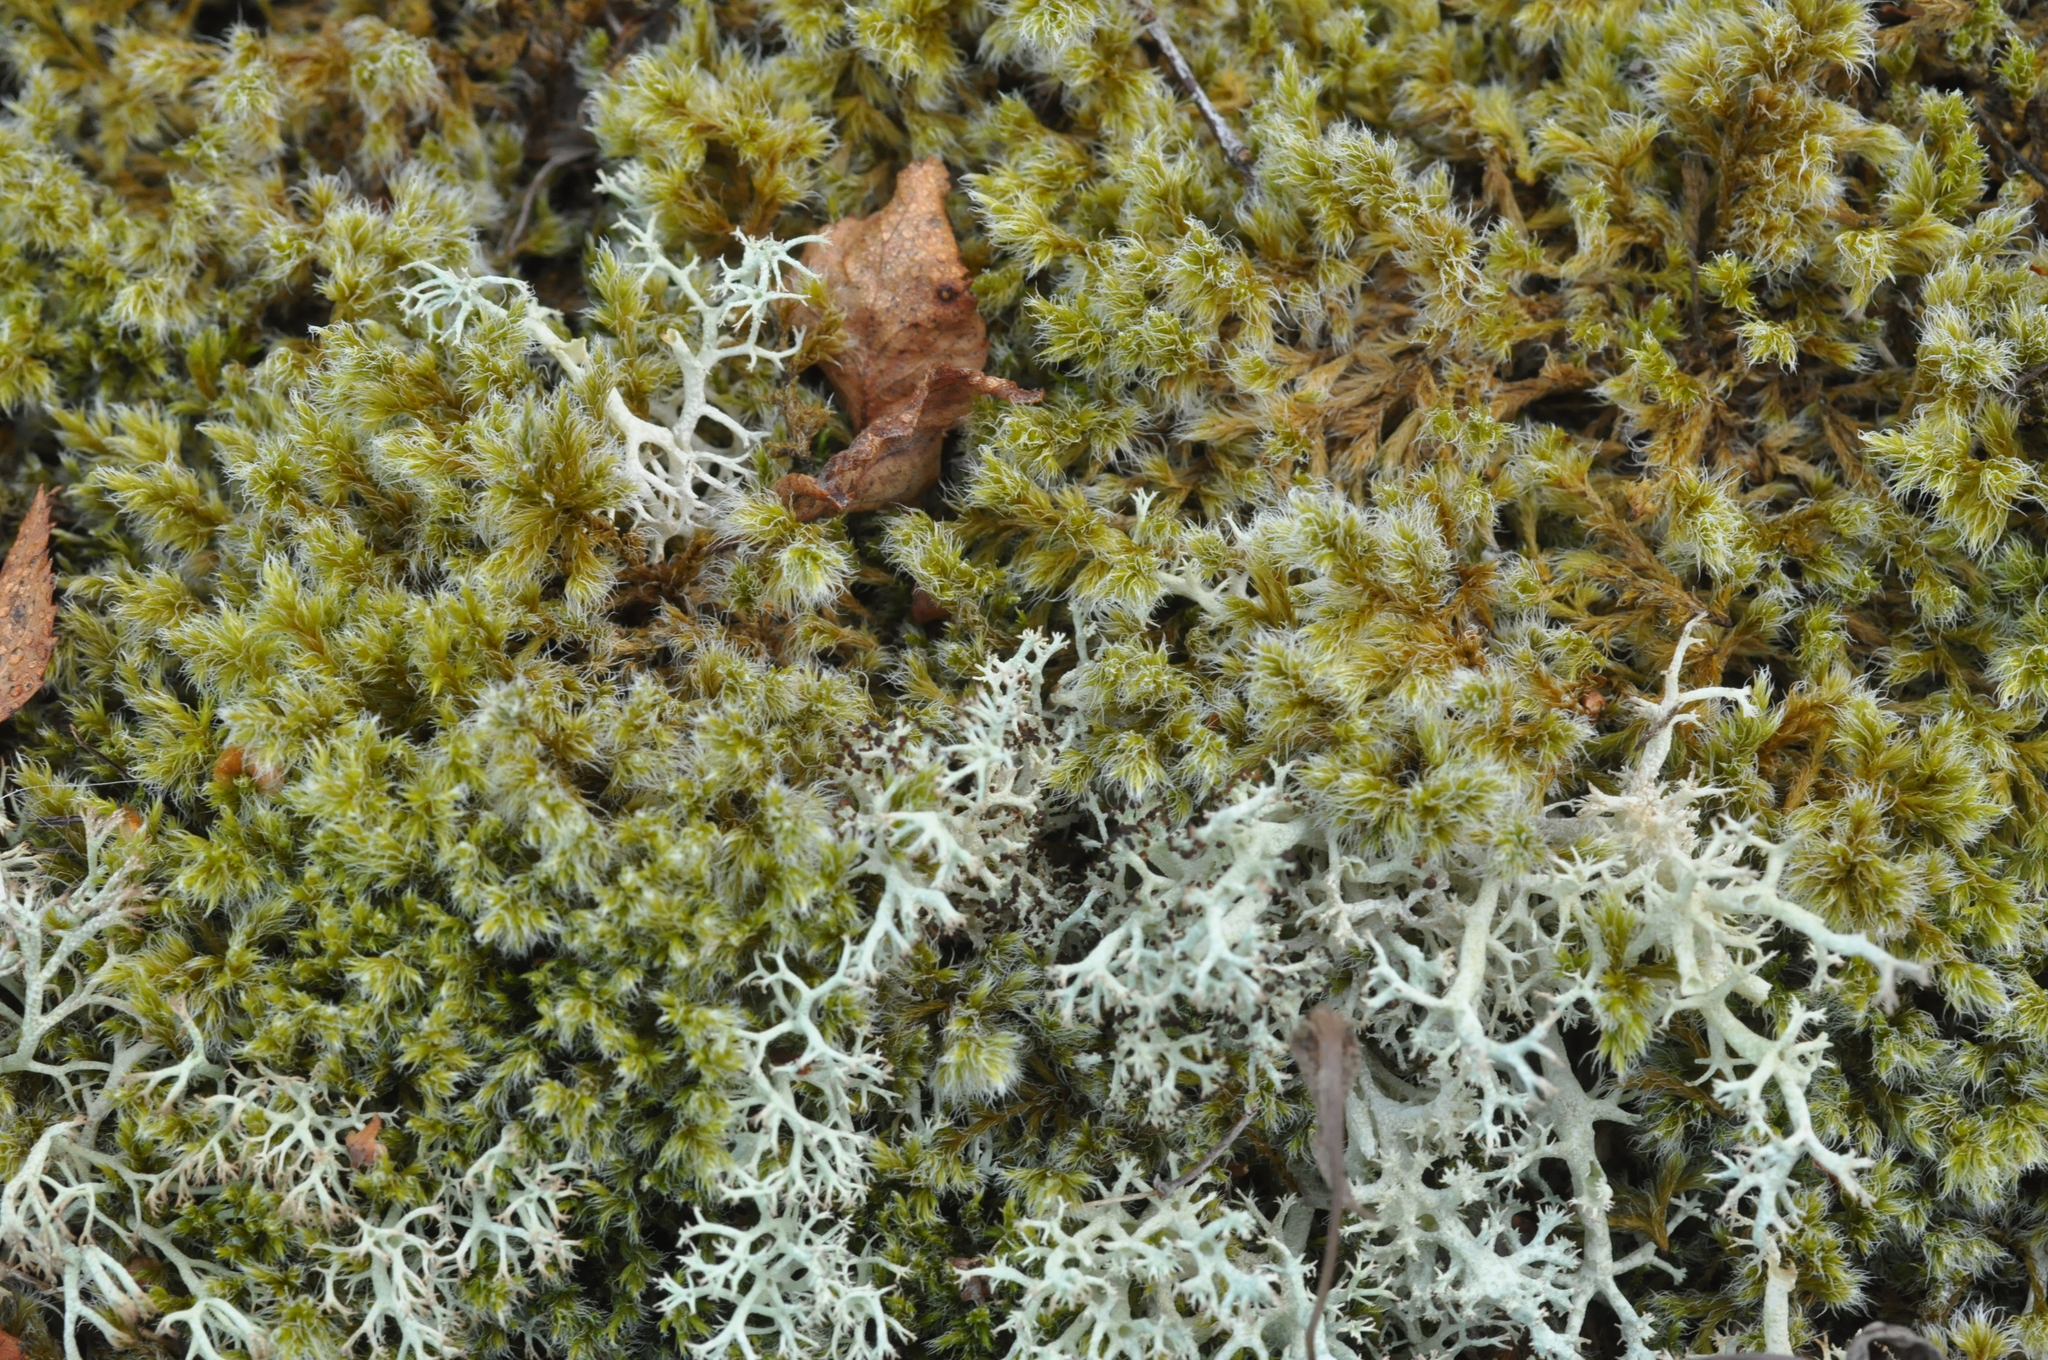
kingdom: Plantae
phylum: Bryophyta
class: Bryopsida
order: Grimmiales
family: Grimmiaceae
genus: Racomitrium
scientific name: Racomitrium lanuginosum
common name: Hoary rock moss
